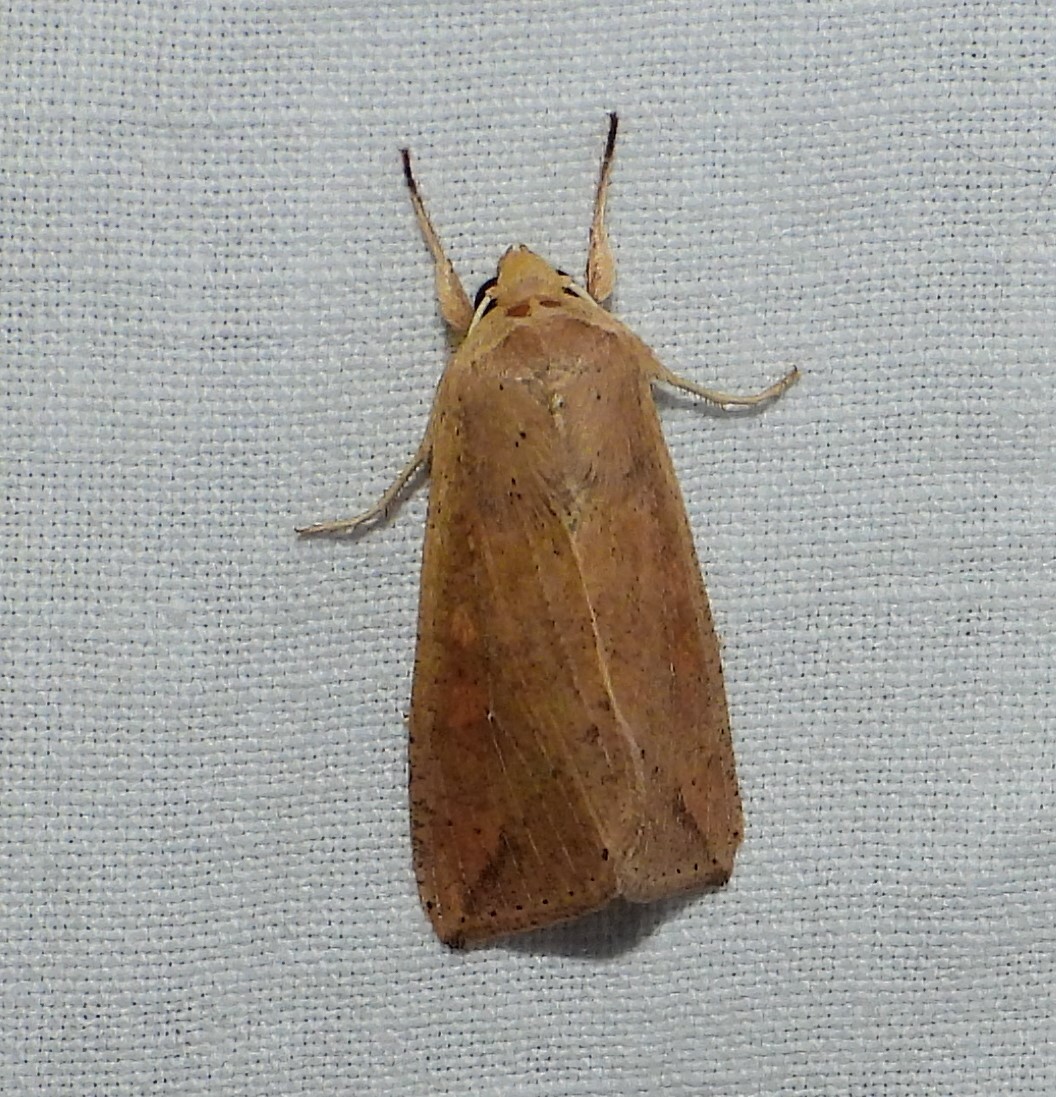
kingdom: Animalia
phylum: Arthropoda
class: Insecta
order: Lepidoptera
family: Noctuidae
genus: Mythimna
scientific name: Mythimna unipuncta
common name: White-speck
